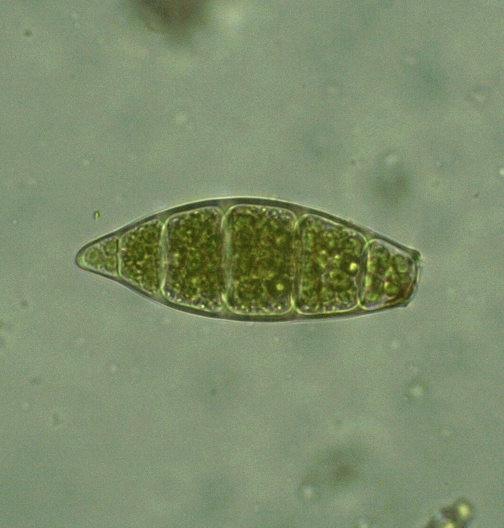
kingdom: Plantae
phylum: Bryophyta
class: Bryopsida
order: Orthotrichales
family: Orthotrichaceae
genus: Zygodon
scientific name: Zygodon rupestris
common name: Park yoke moss
